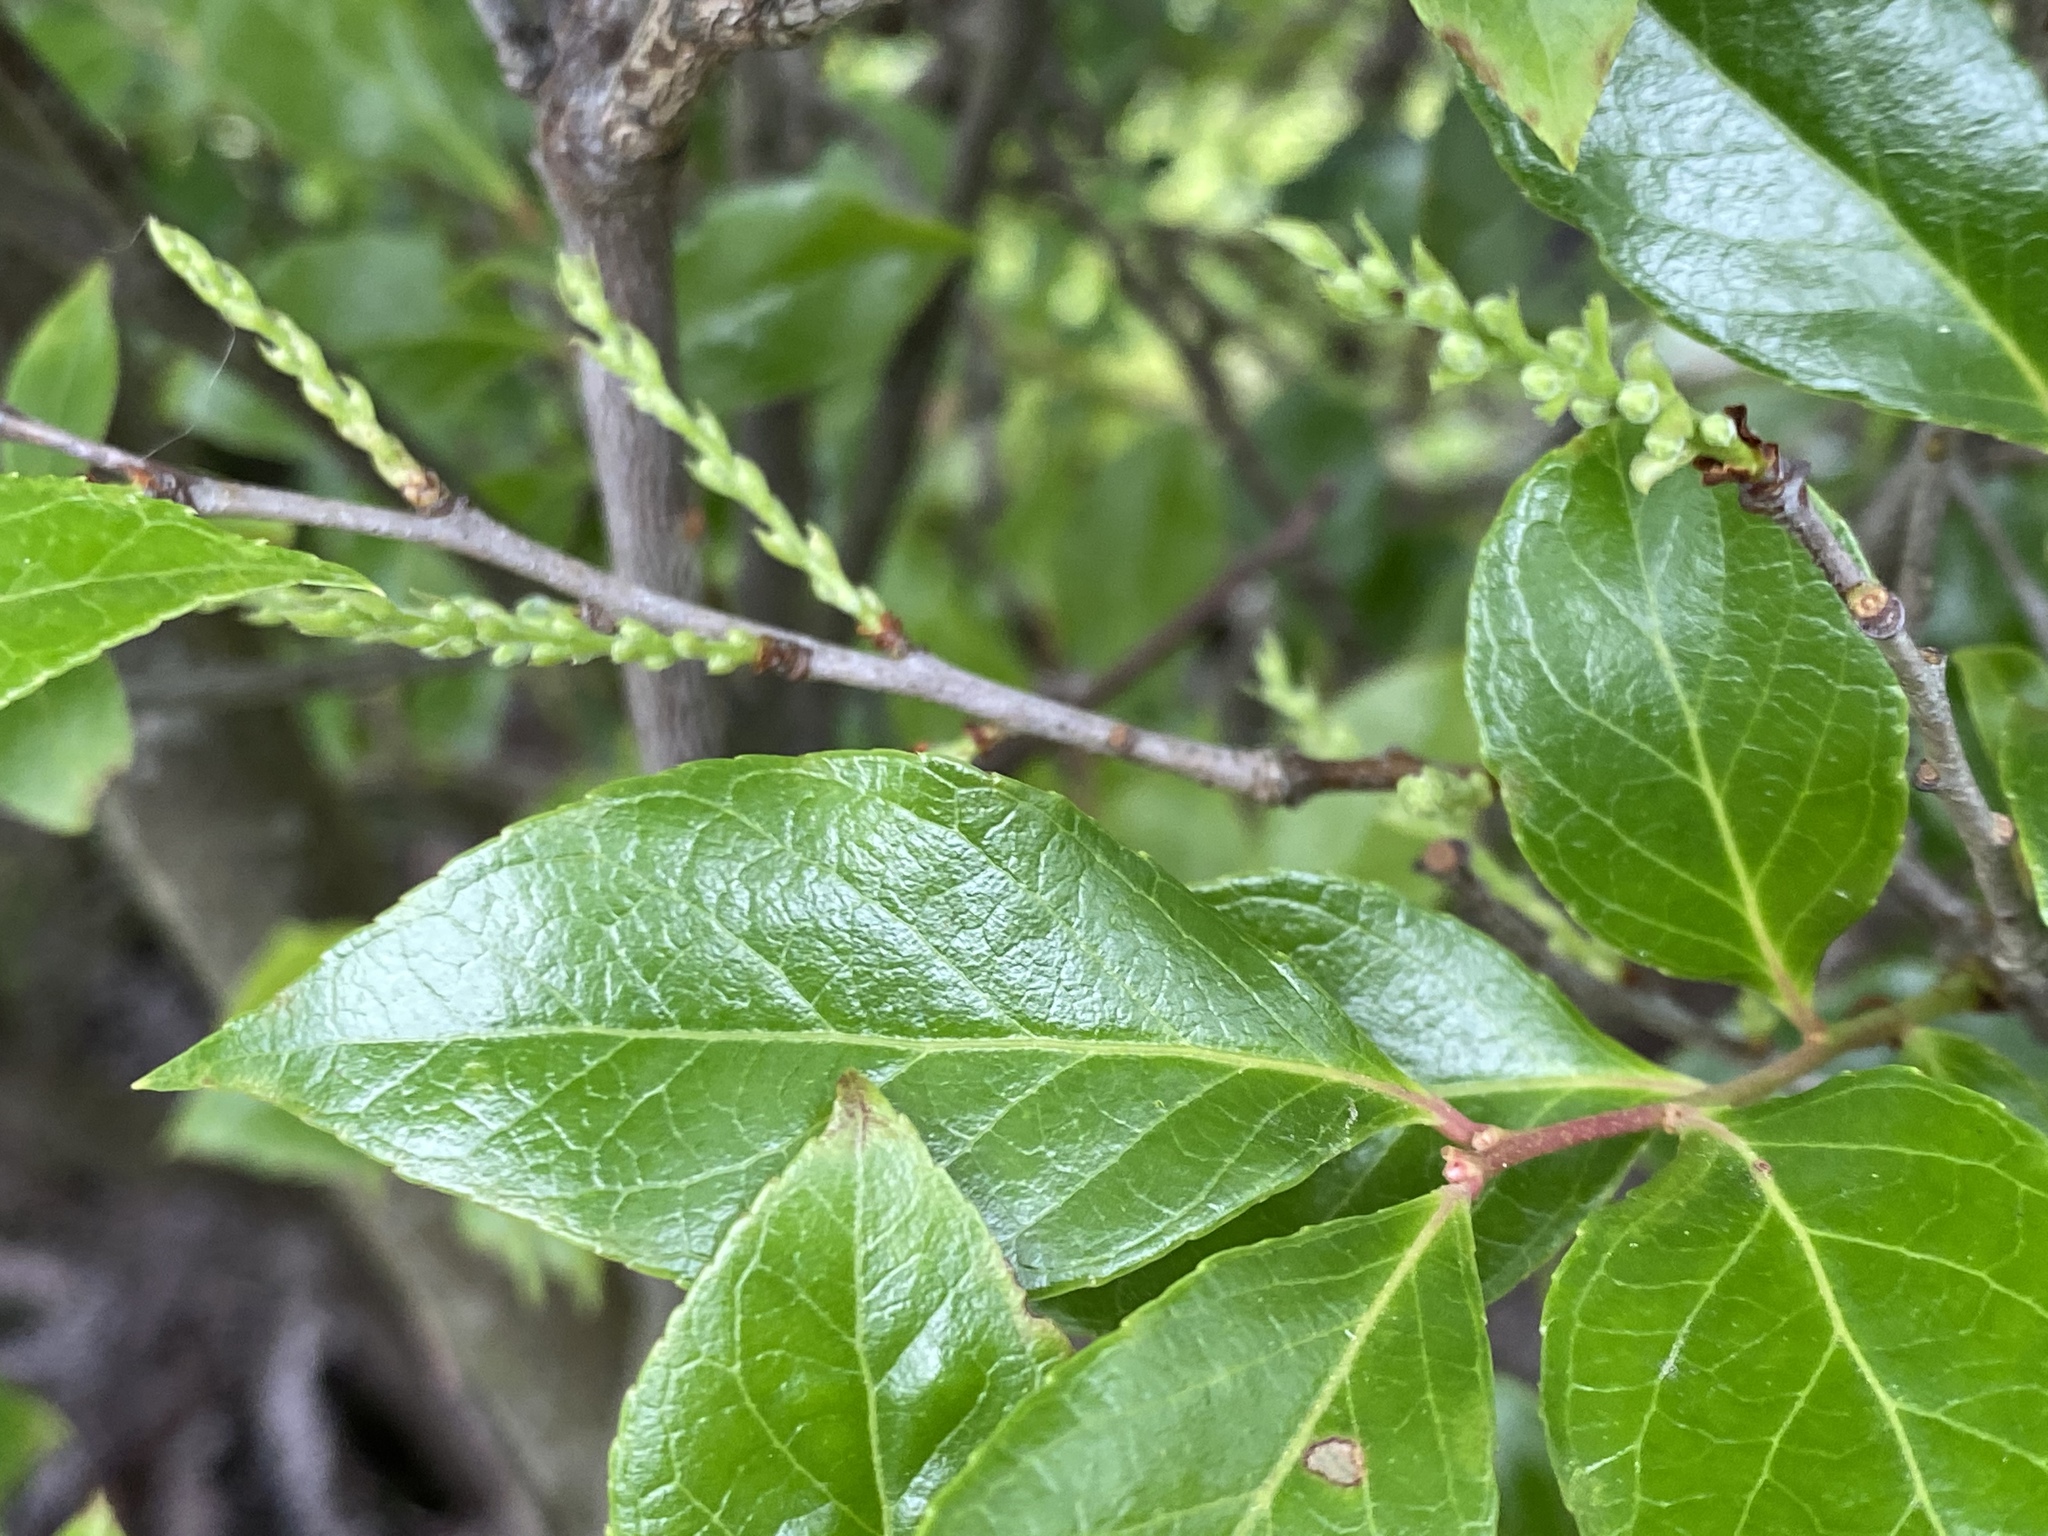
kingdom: Plantae
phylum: Tracheophyta
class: Magnoliopsida
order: Ericales
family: Ericaceae
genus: Vaccinium
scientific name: Vaccinium bracteatum
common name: Sea bilberry
